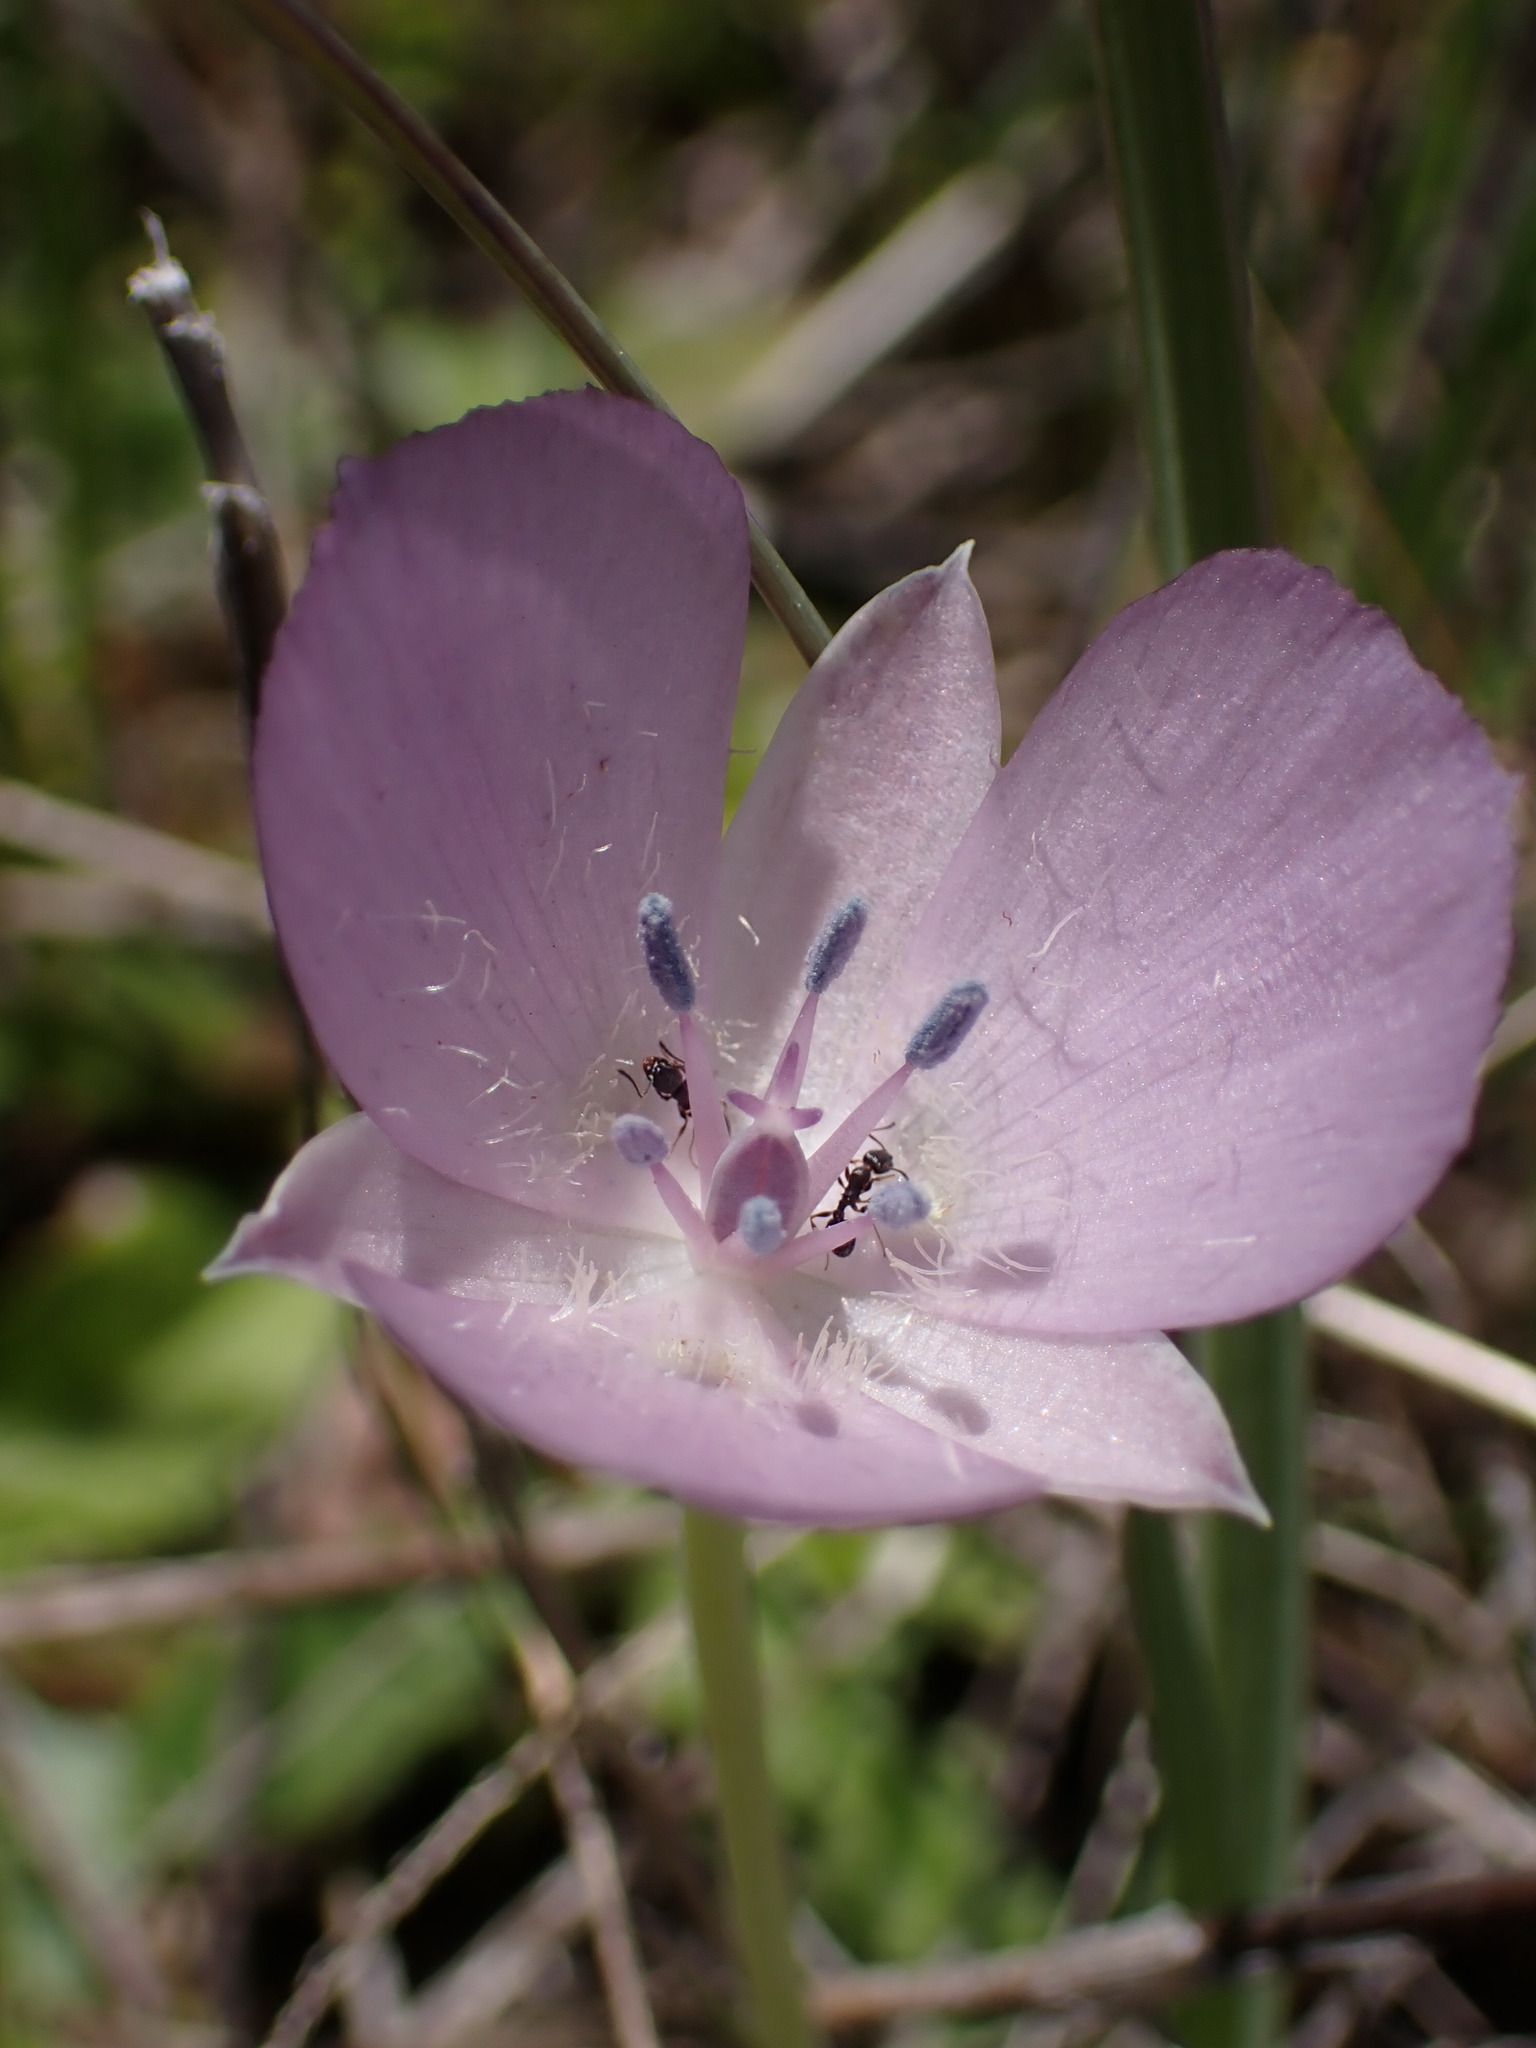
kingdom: Plantae
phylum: Tracheophyta
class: Liliopsida
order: Liliales
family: Liliaceae
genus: Calochortus
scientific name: Calochortus uniflorus
